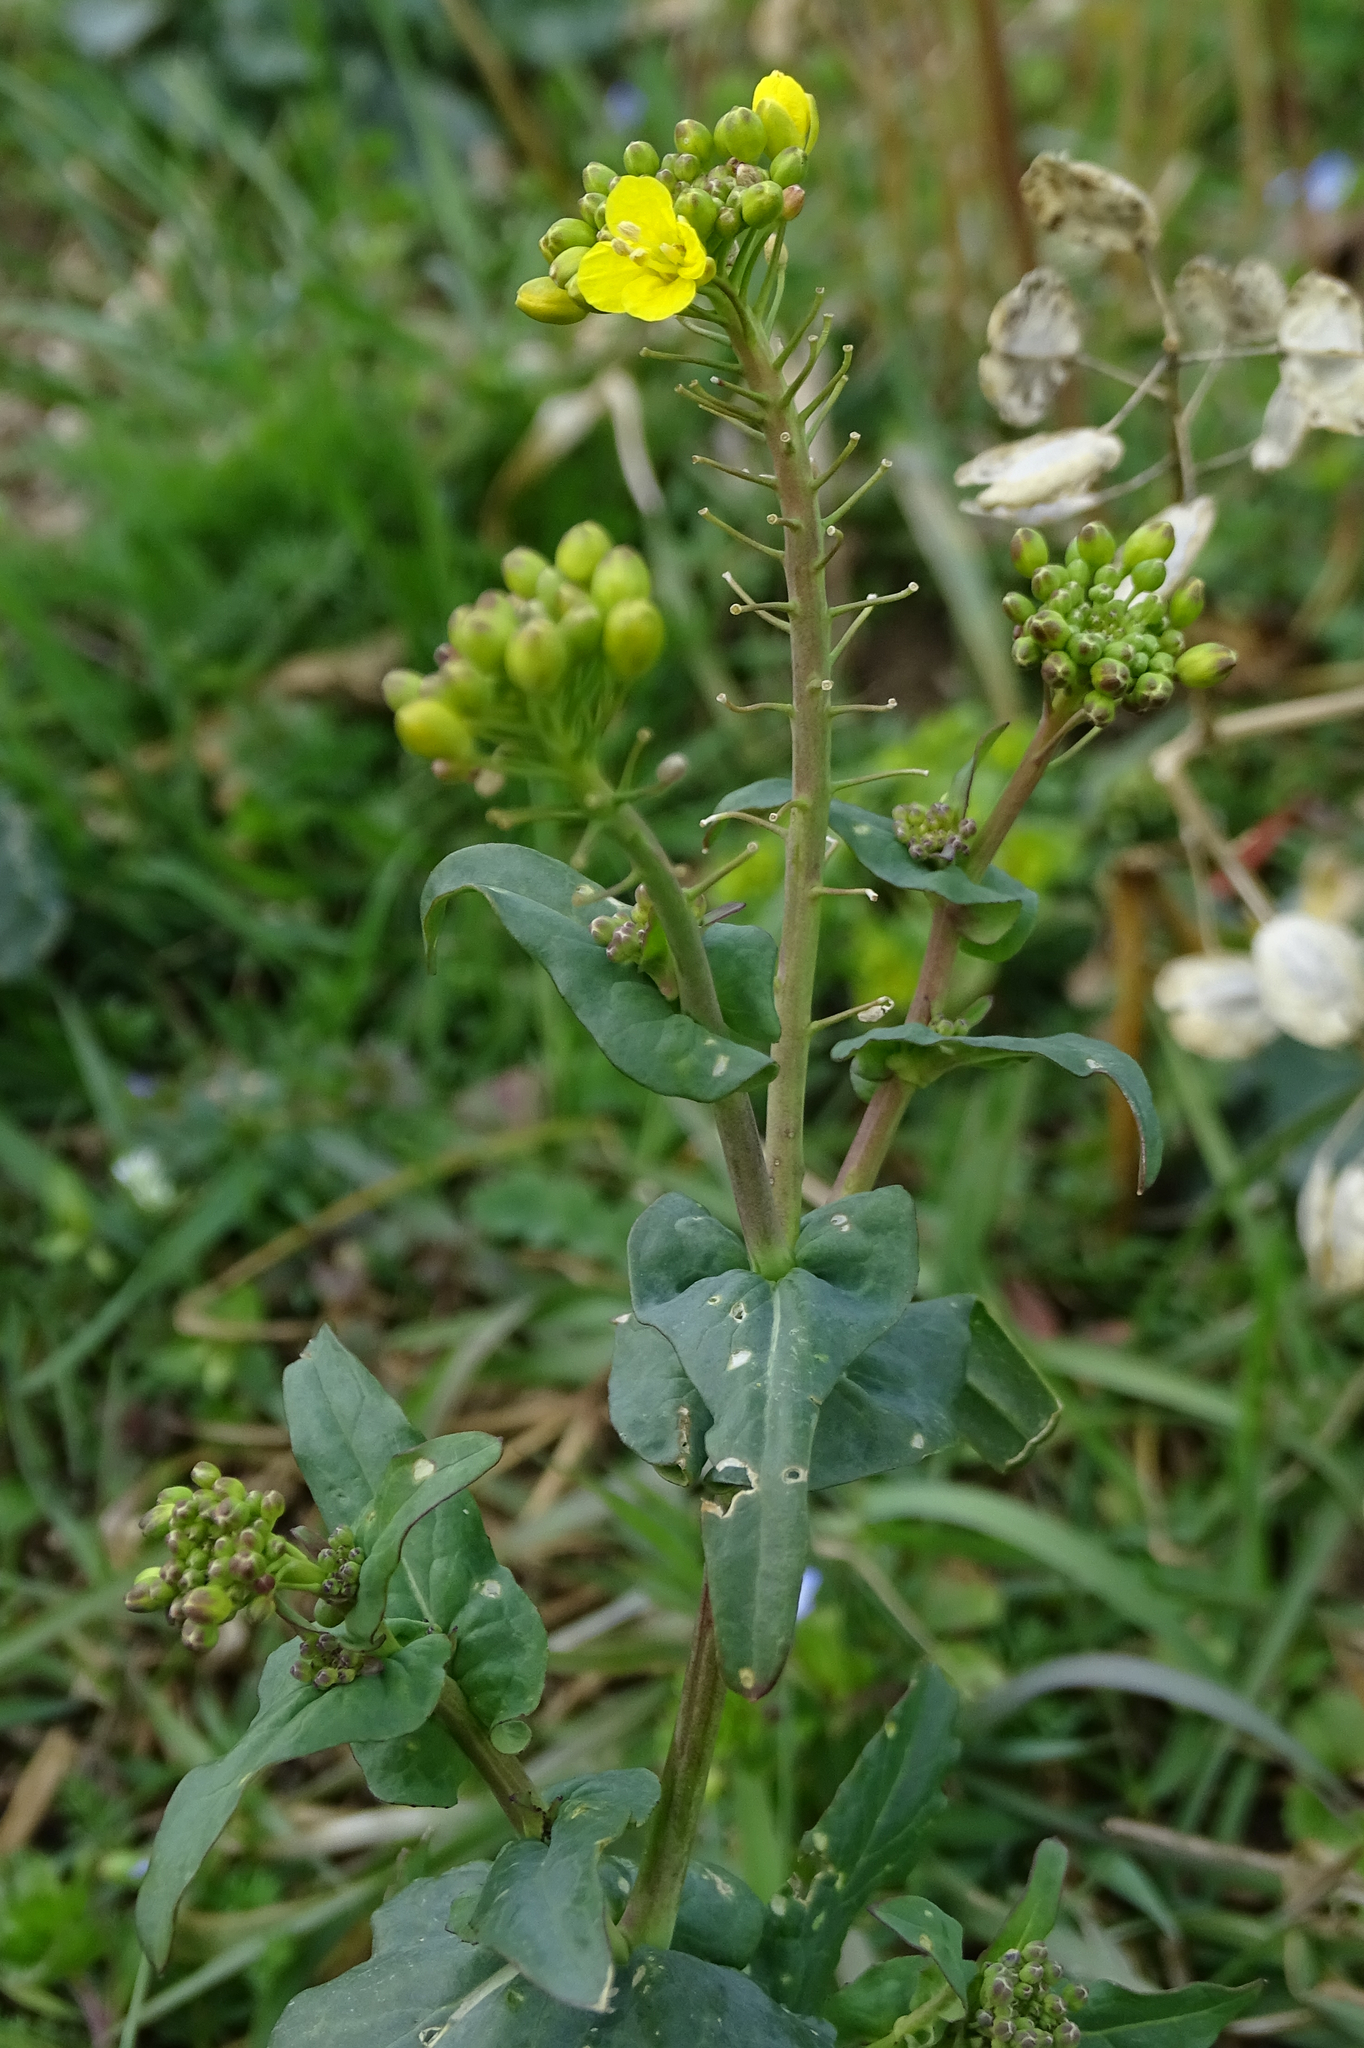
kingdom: Plantae
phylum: Tracheophyta
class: Magnoliopsida
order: Brassicales
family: Brassicaceae
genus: Brassica
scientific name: Brassica rapa
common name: Field mustard
